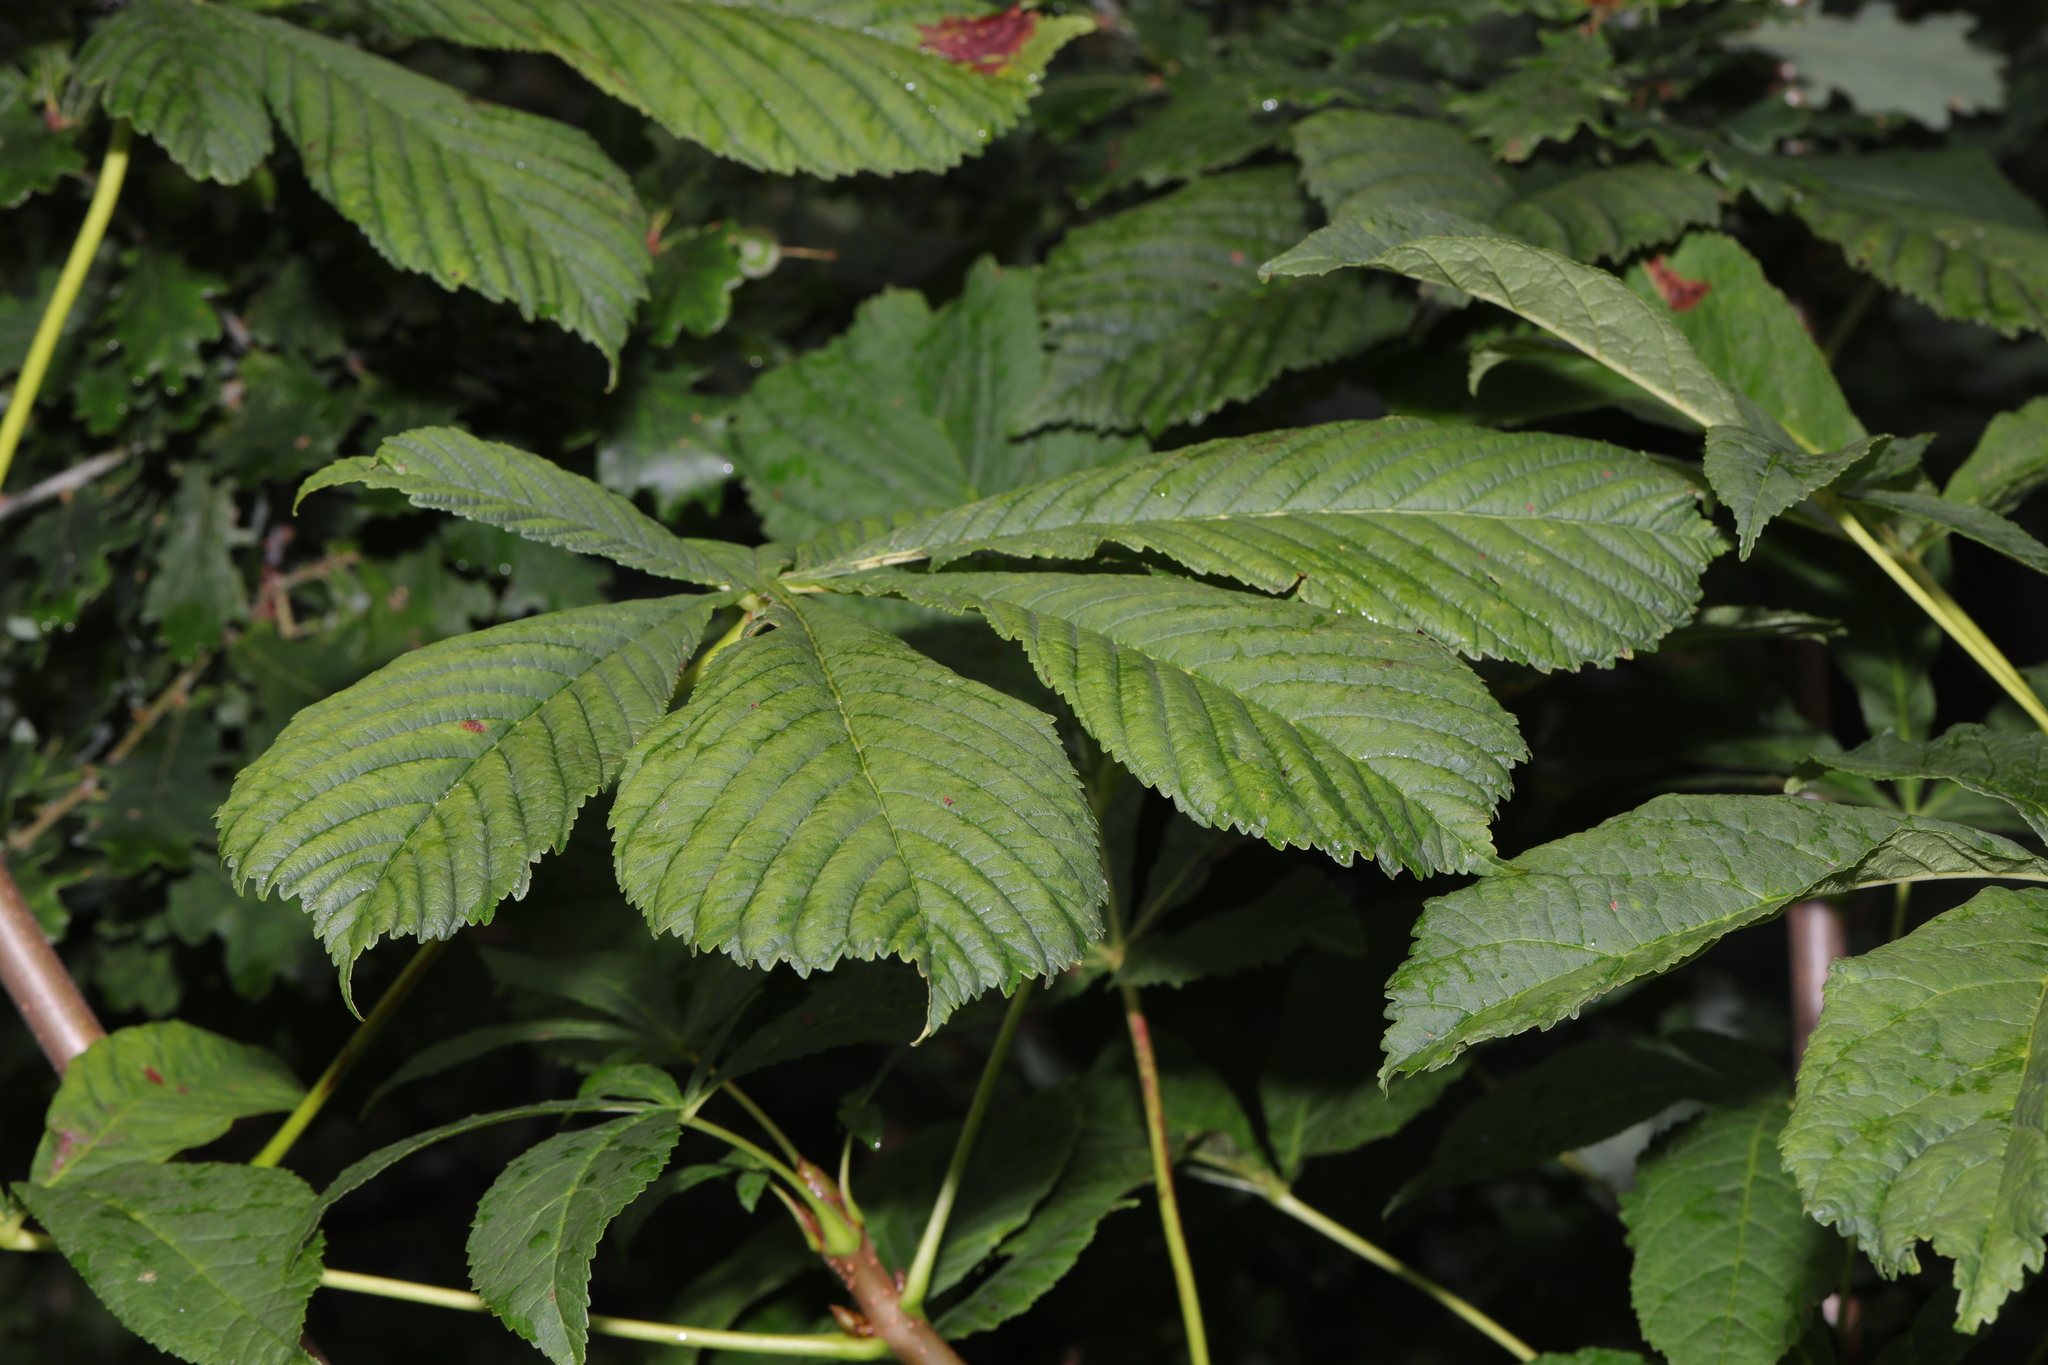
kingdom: Plantae
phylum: Tracheophyta
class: Magnoliopsida
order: Sapindales
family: Sapindaceae
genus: Aesculus
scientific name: Aesculus hippocastanum
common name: Horse-chestnut
